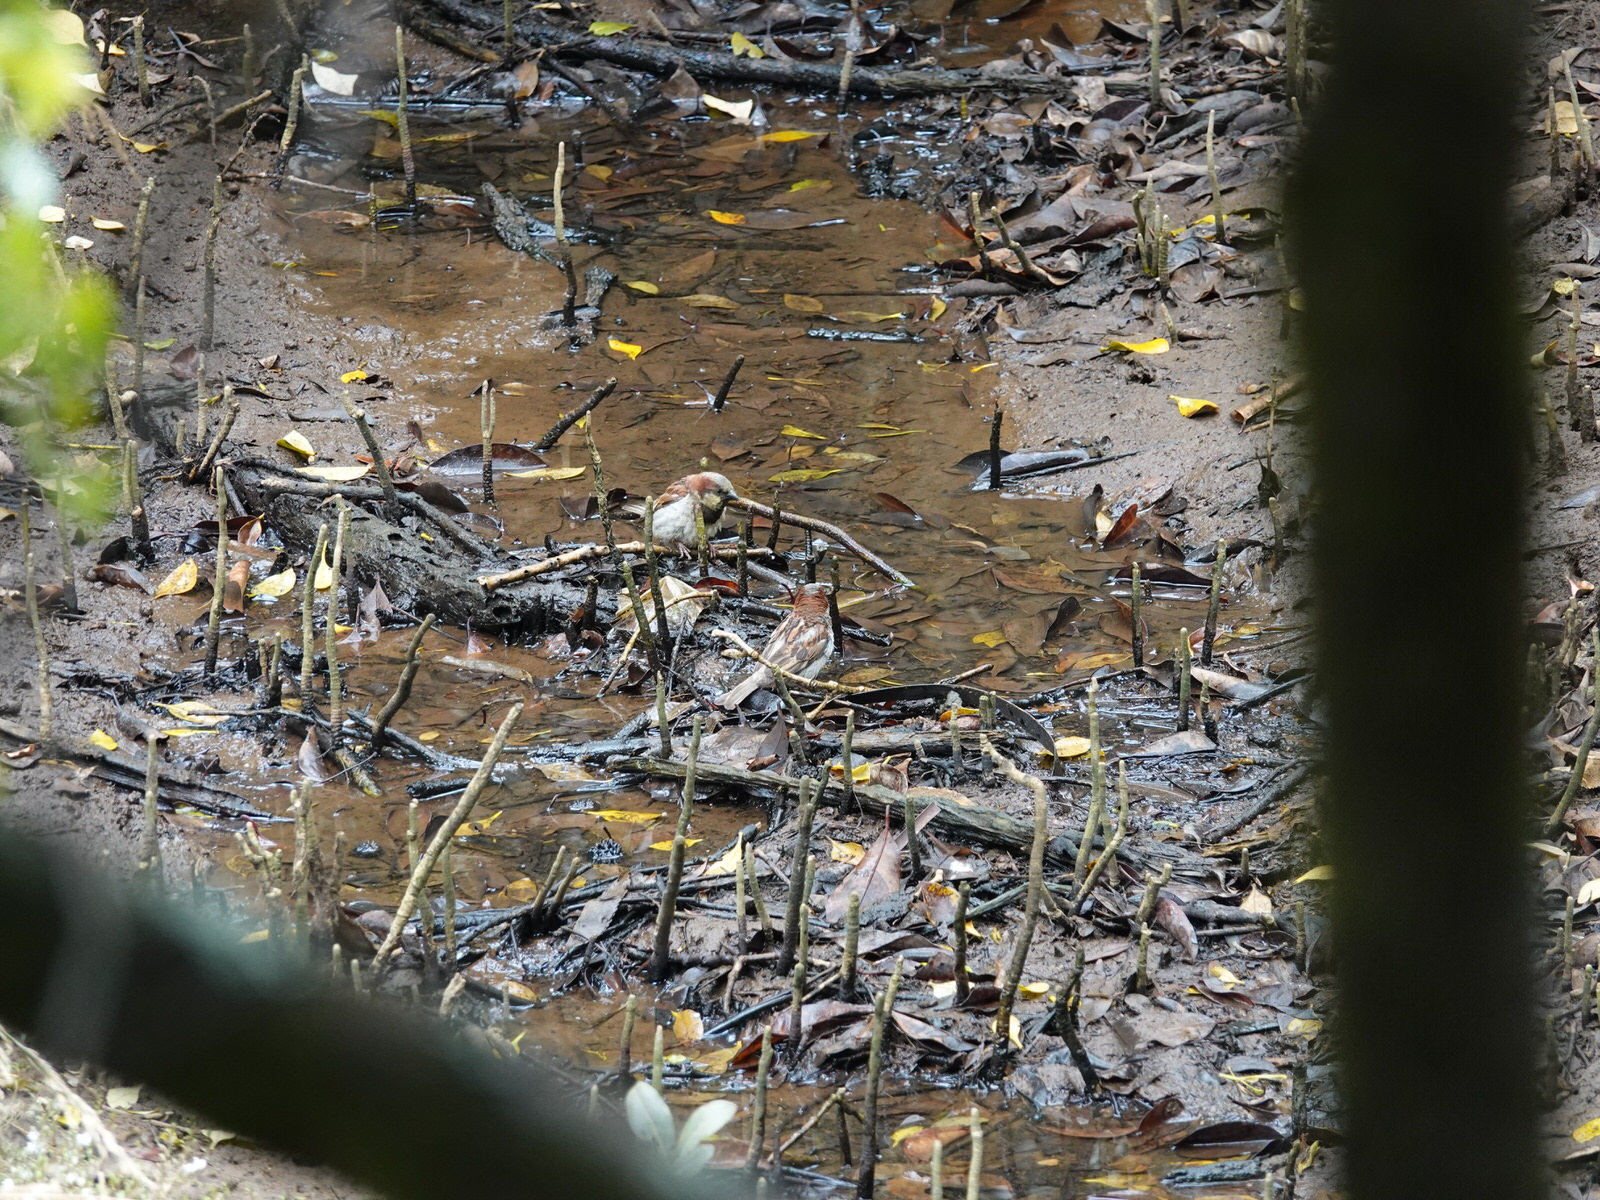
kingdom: Animalia
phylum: Chordata
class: Aves
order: Passeriformes
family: Passeridae
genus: Passer
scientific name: Passer domesticus
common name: House sparrow
